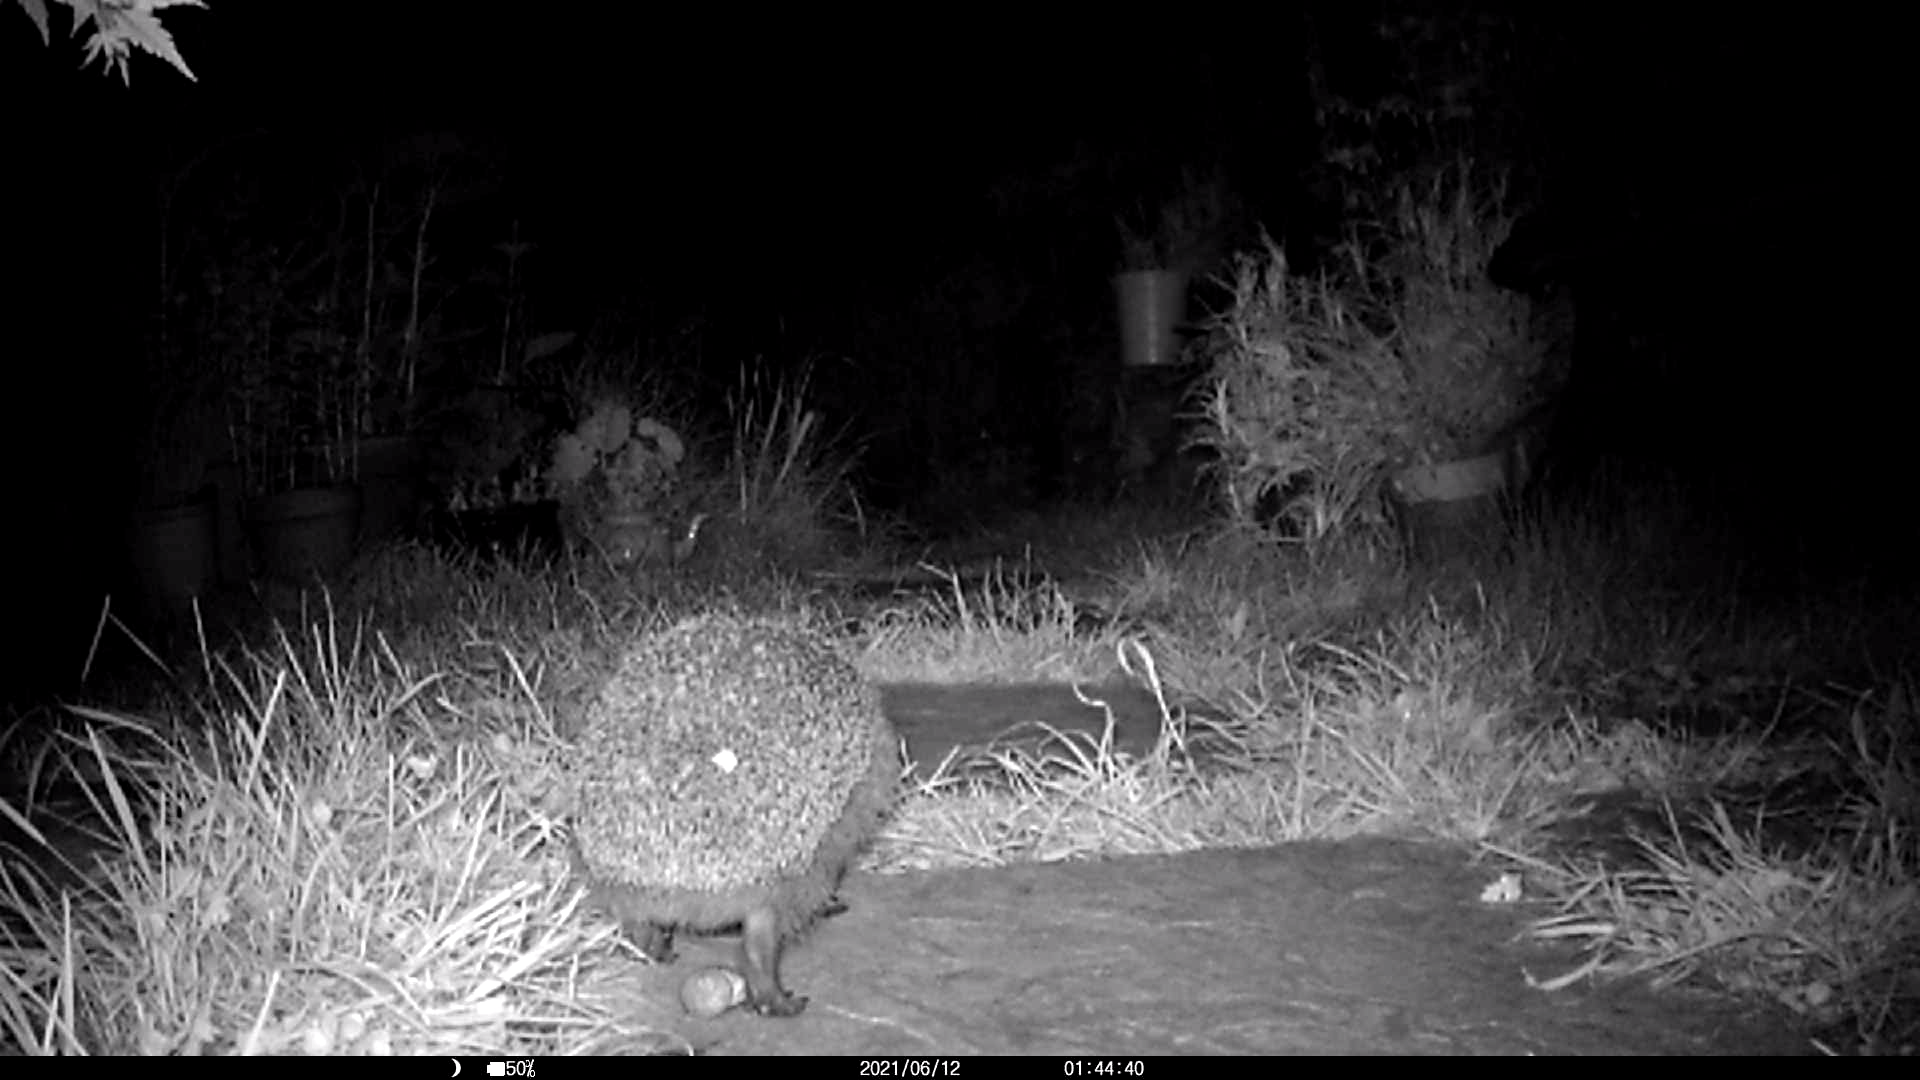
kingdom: Animalia
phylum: Chordata
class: Mammalia
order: Erinaceomorpha
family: Erinaceidae
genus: Erinaceus
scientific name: Erinaceus europaeus
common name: West european hedgehog
